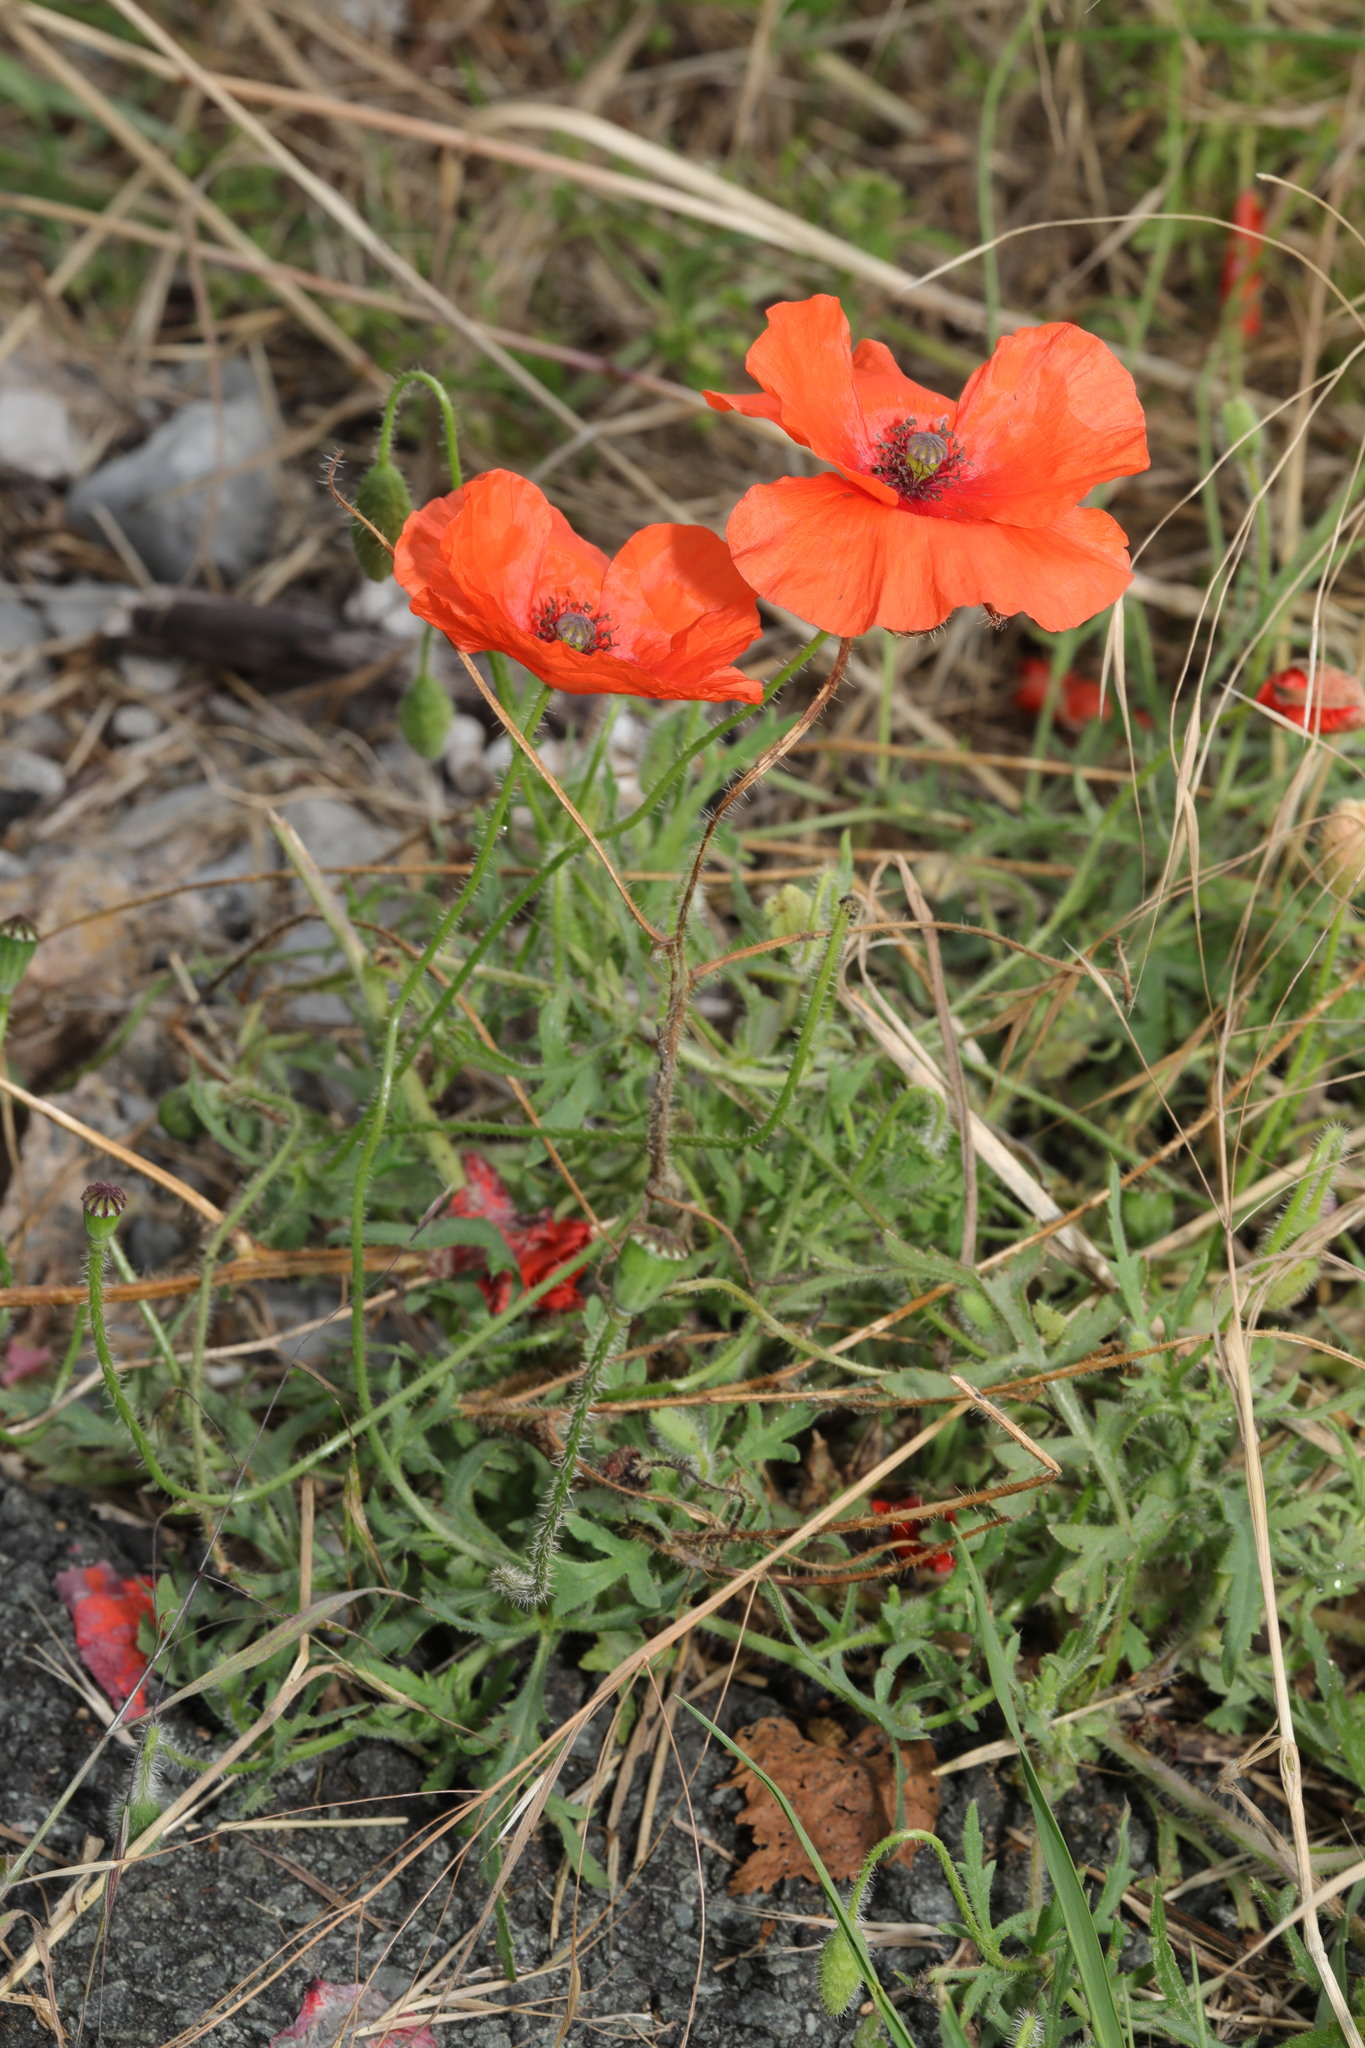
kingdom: Plantae
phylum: Tracheophyta
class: Magnoliopsida
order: Ranunculales
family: Papaveraceae
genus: Papaver
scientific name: Papaver rhoeas
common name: Corn poppy
